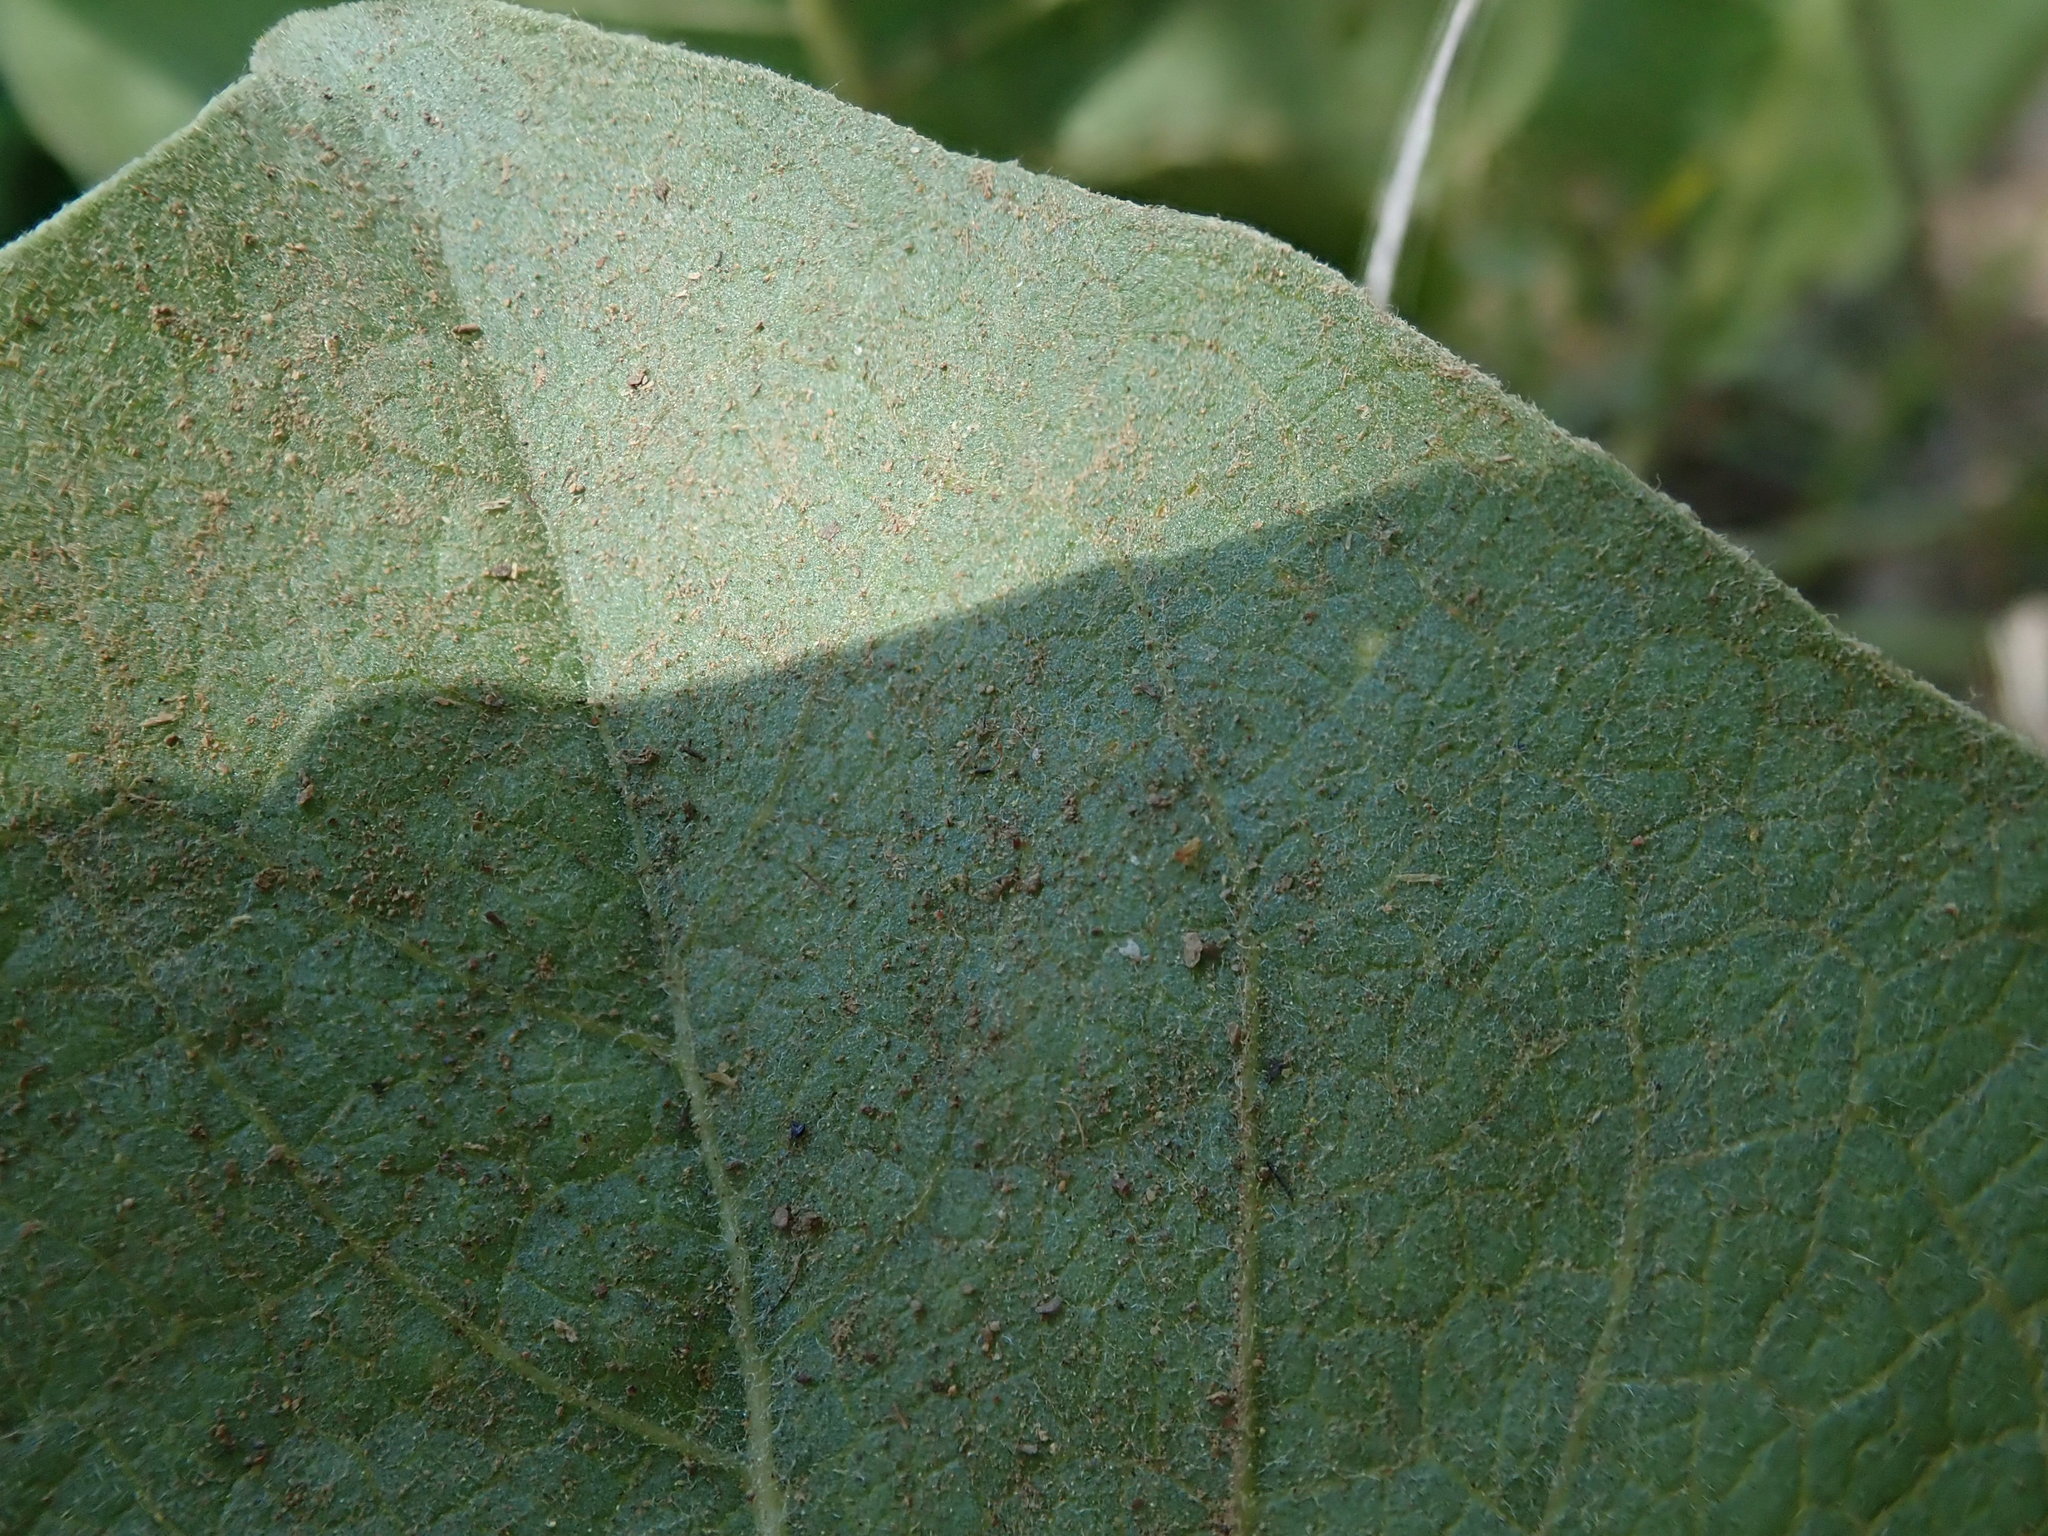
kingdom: Plantae
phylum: Tracheophyta
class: Magnoliopsida
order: Asterales
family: Asteraceae
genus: Wyethia
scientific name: Wyethia glabra
